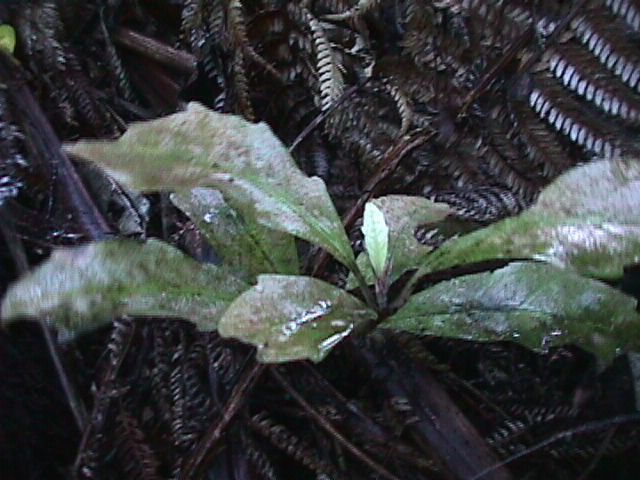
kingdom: Plantae
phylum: Tracheophyta
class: Magnoliopsida
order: Asterales
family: Alseuosmiaceae
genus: Alseuosmia
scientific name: Alseuosmia macrophylla
